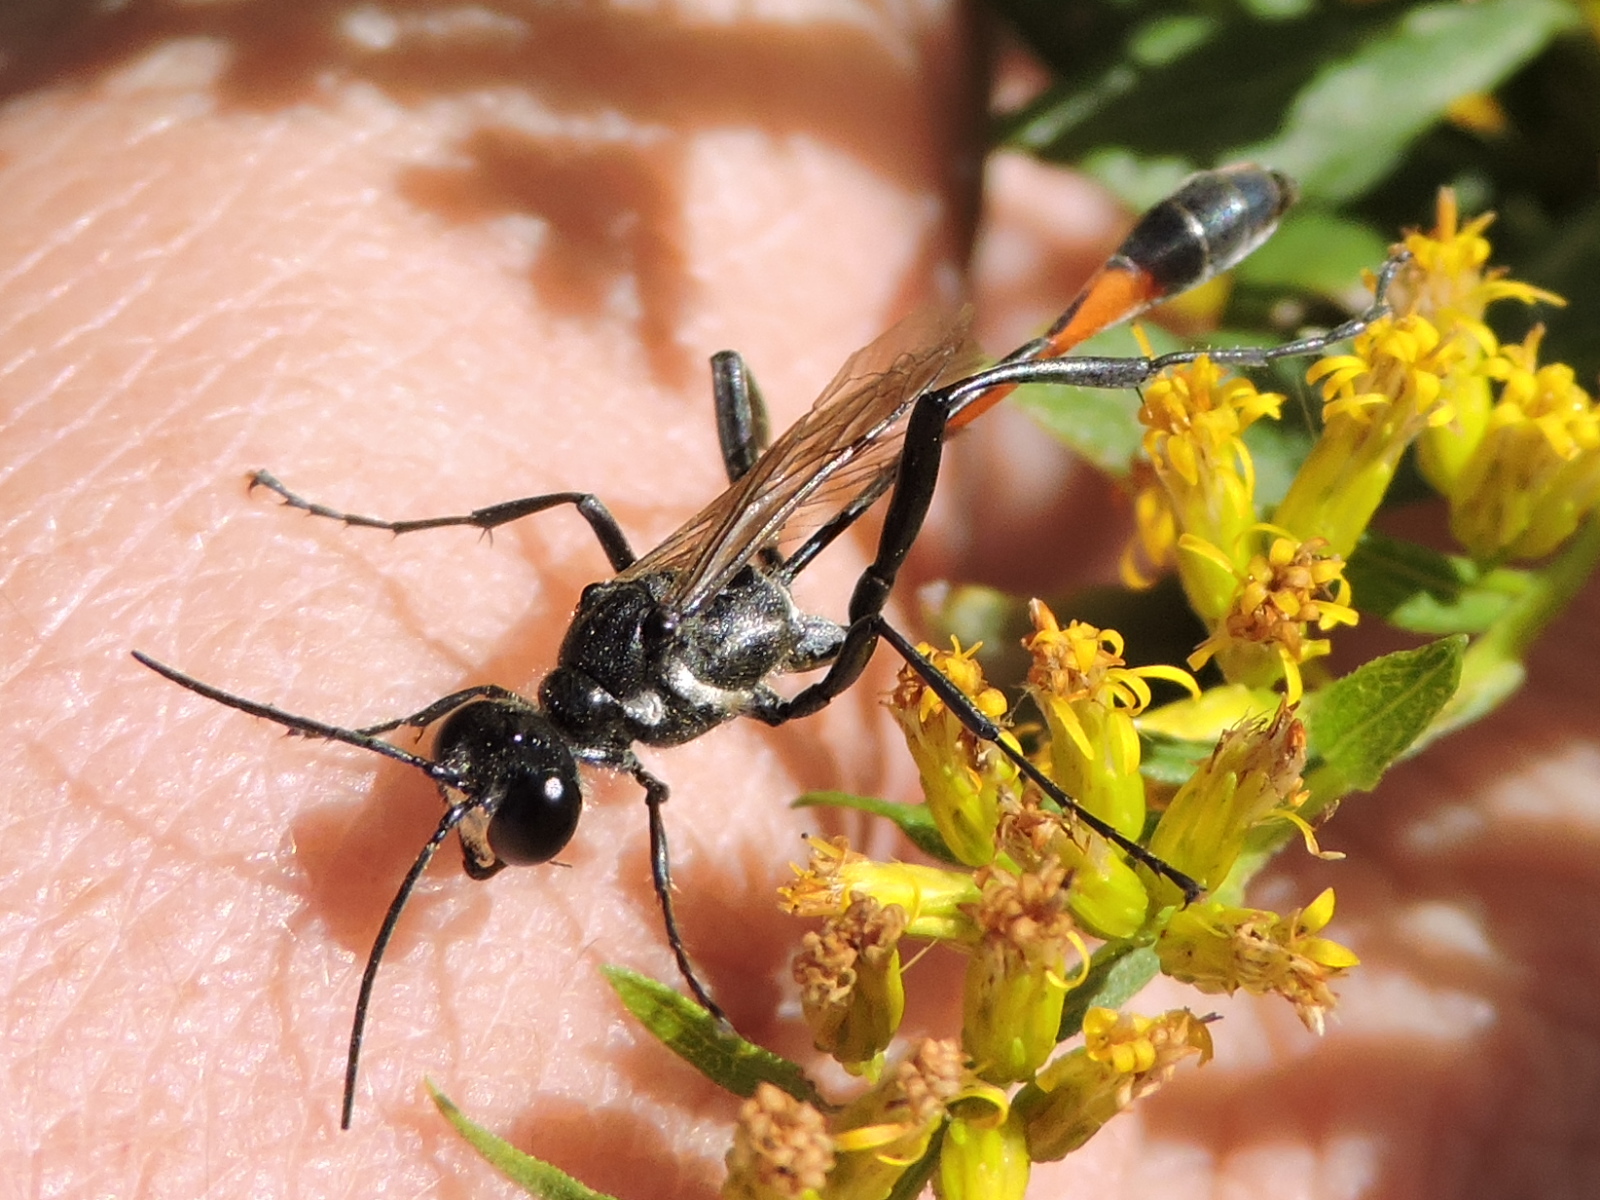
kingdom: Animalia
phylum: Arthropoda
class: Insecta
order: Hymenoptera
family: Sphecidae
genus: Ammophila
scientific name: Ammophila procera
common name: Common thread-waisted wasp
